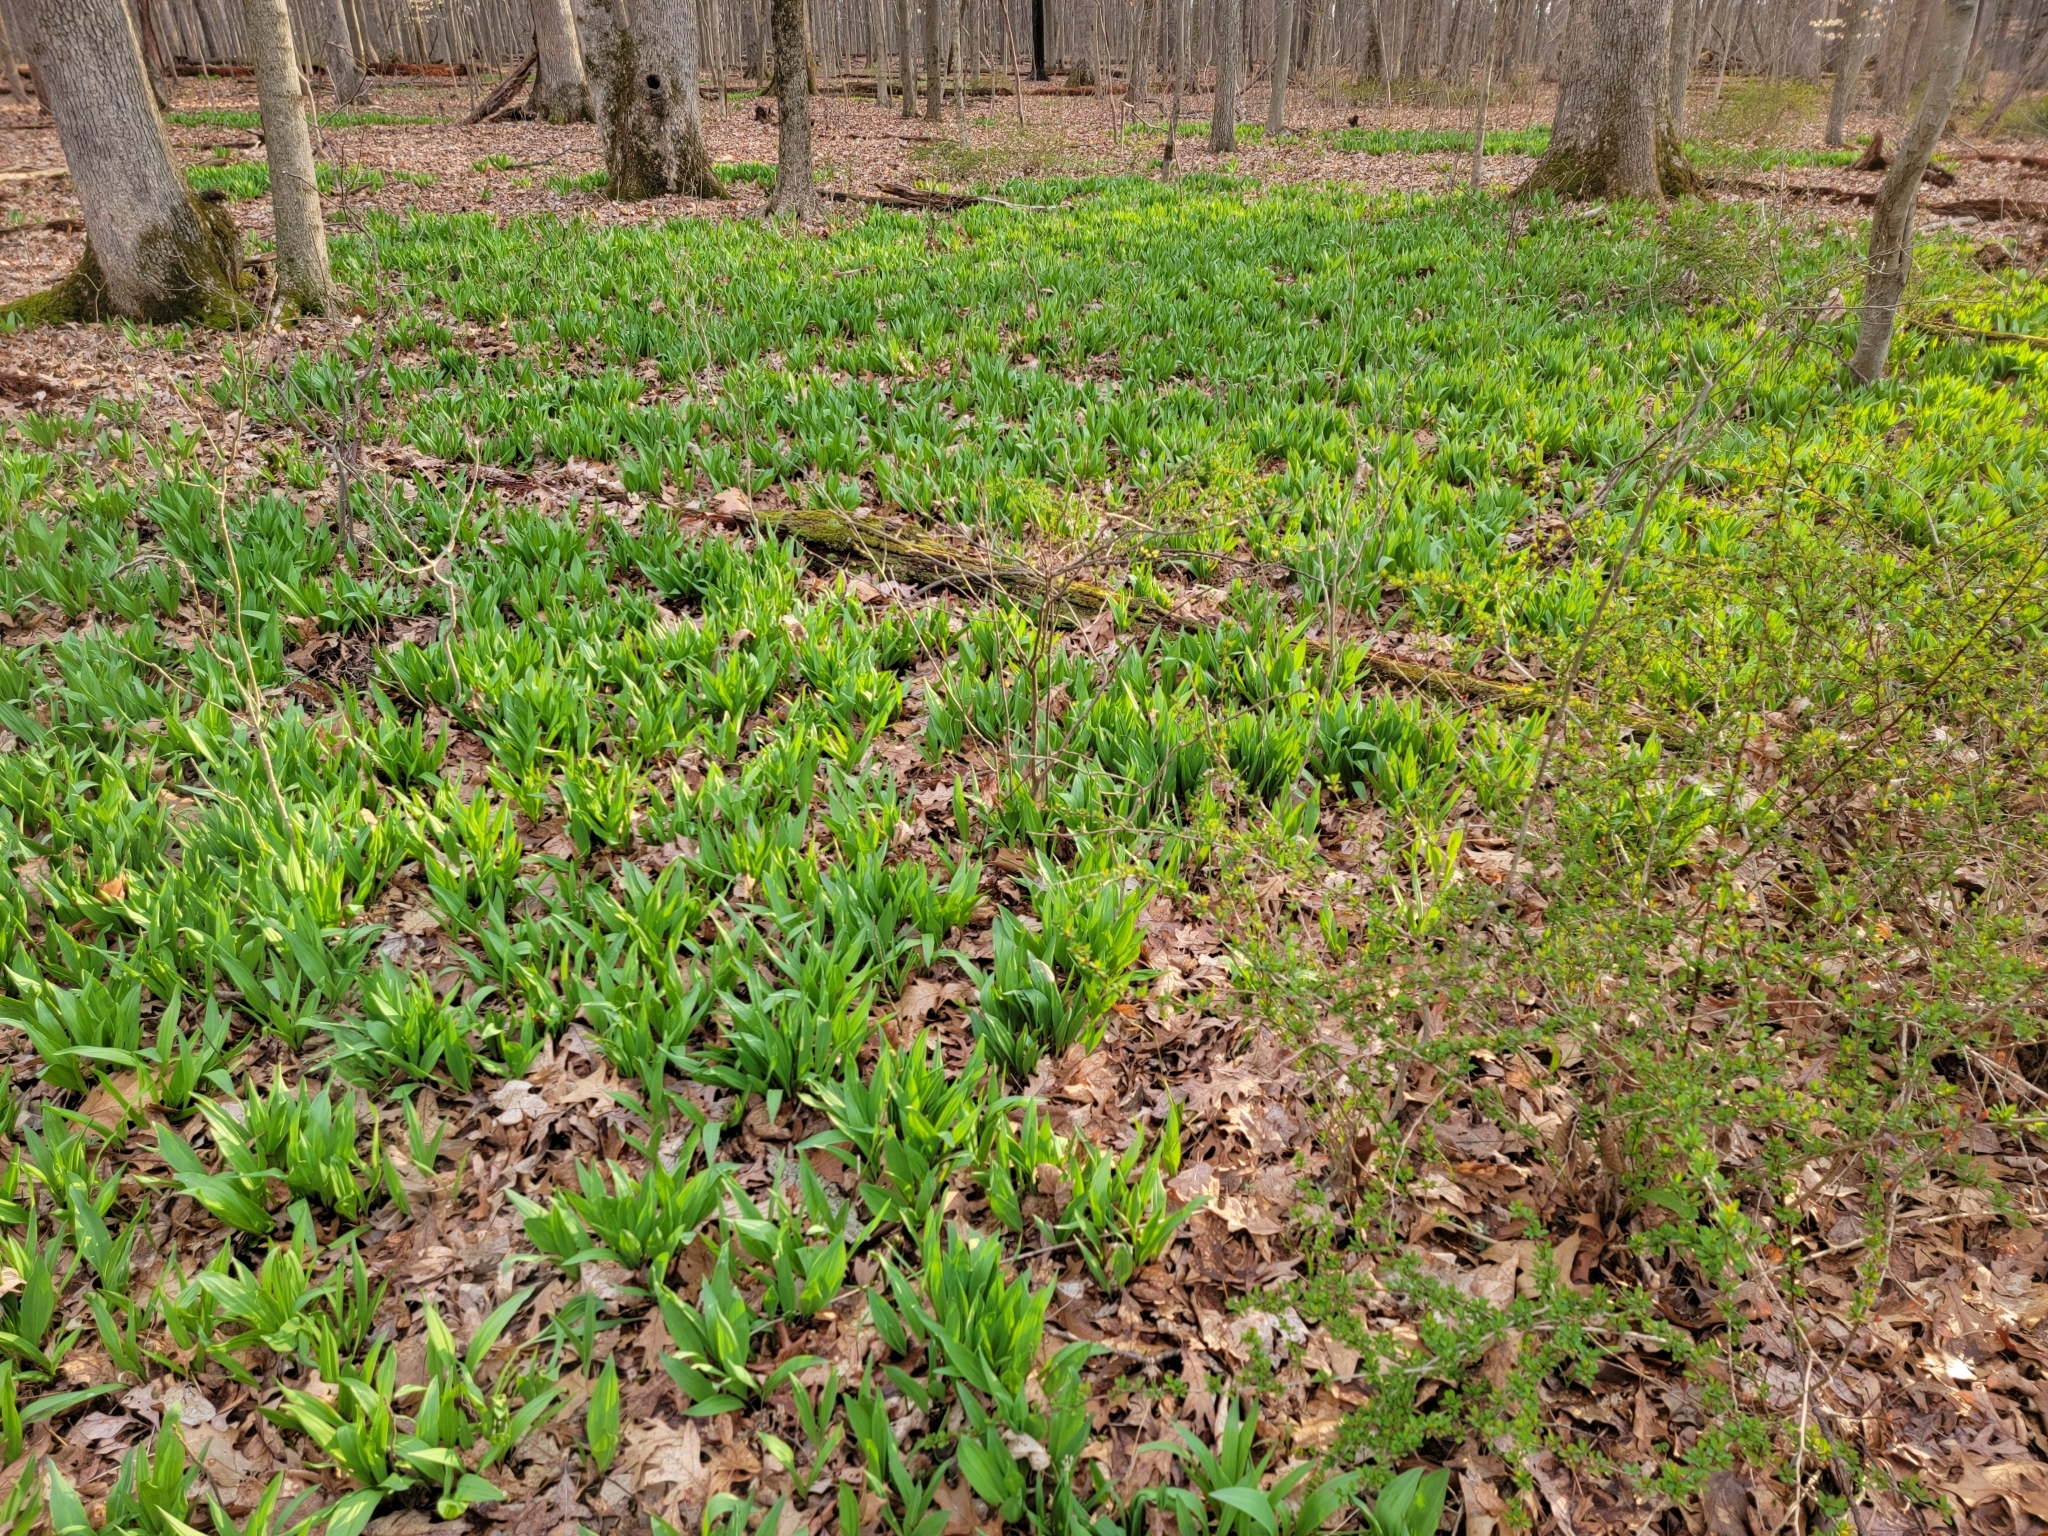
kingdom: Plantae
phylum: Tracheophyta
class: Liliopsida
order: Asparagales
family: Amaryllidaceae
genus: Allium
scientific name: Allium tricoccum
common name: Ramp
